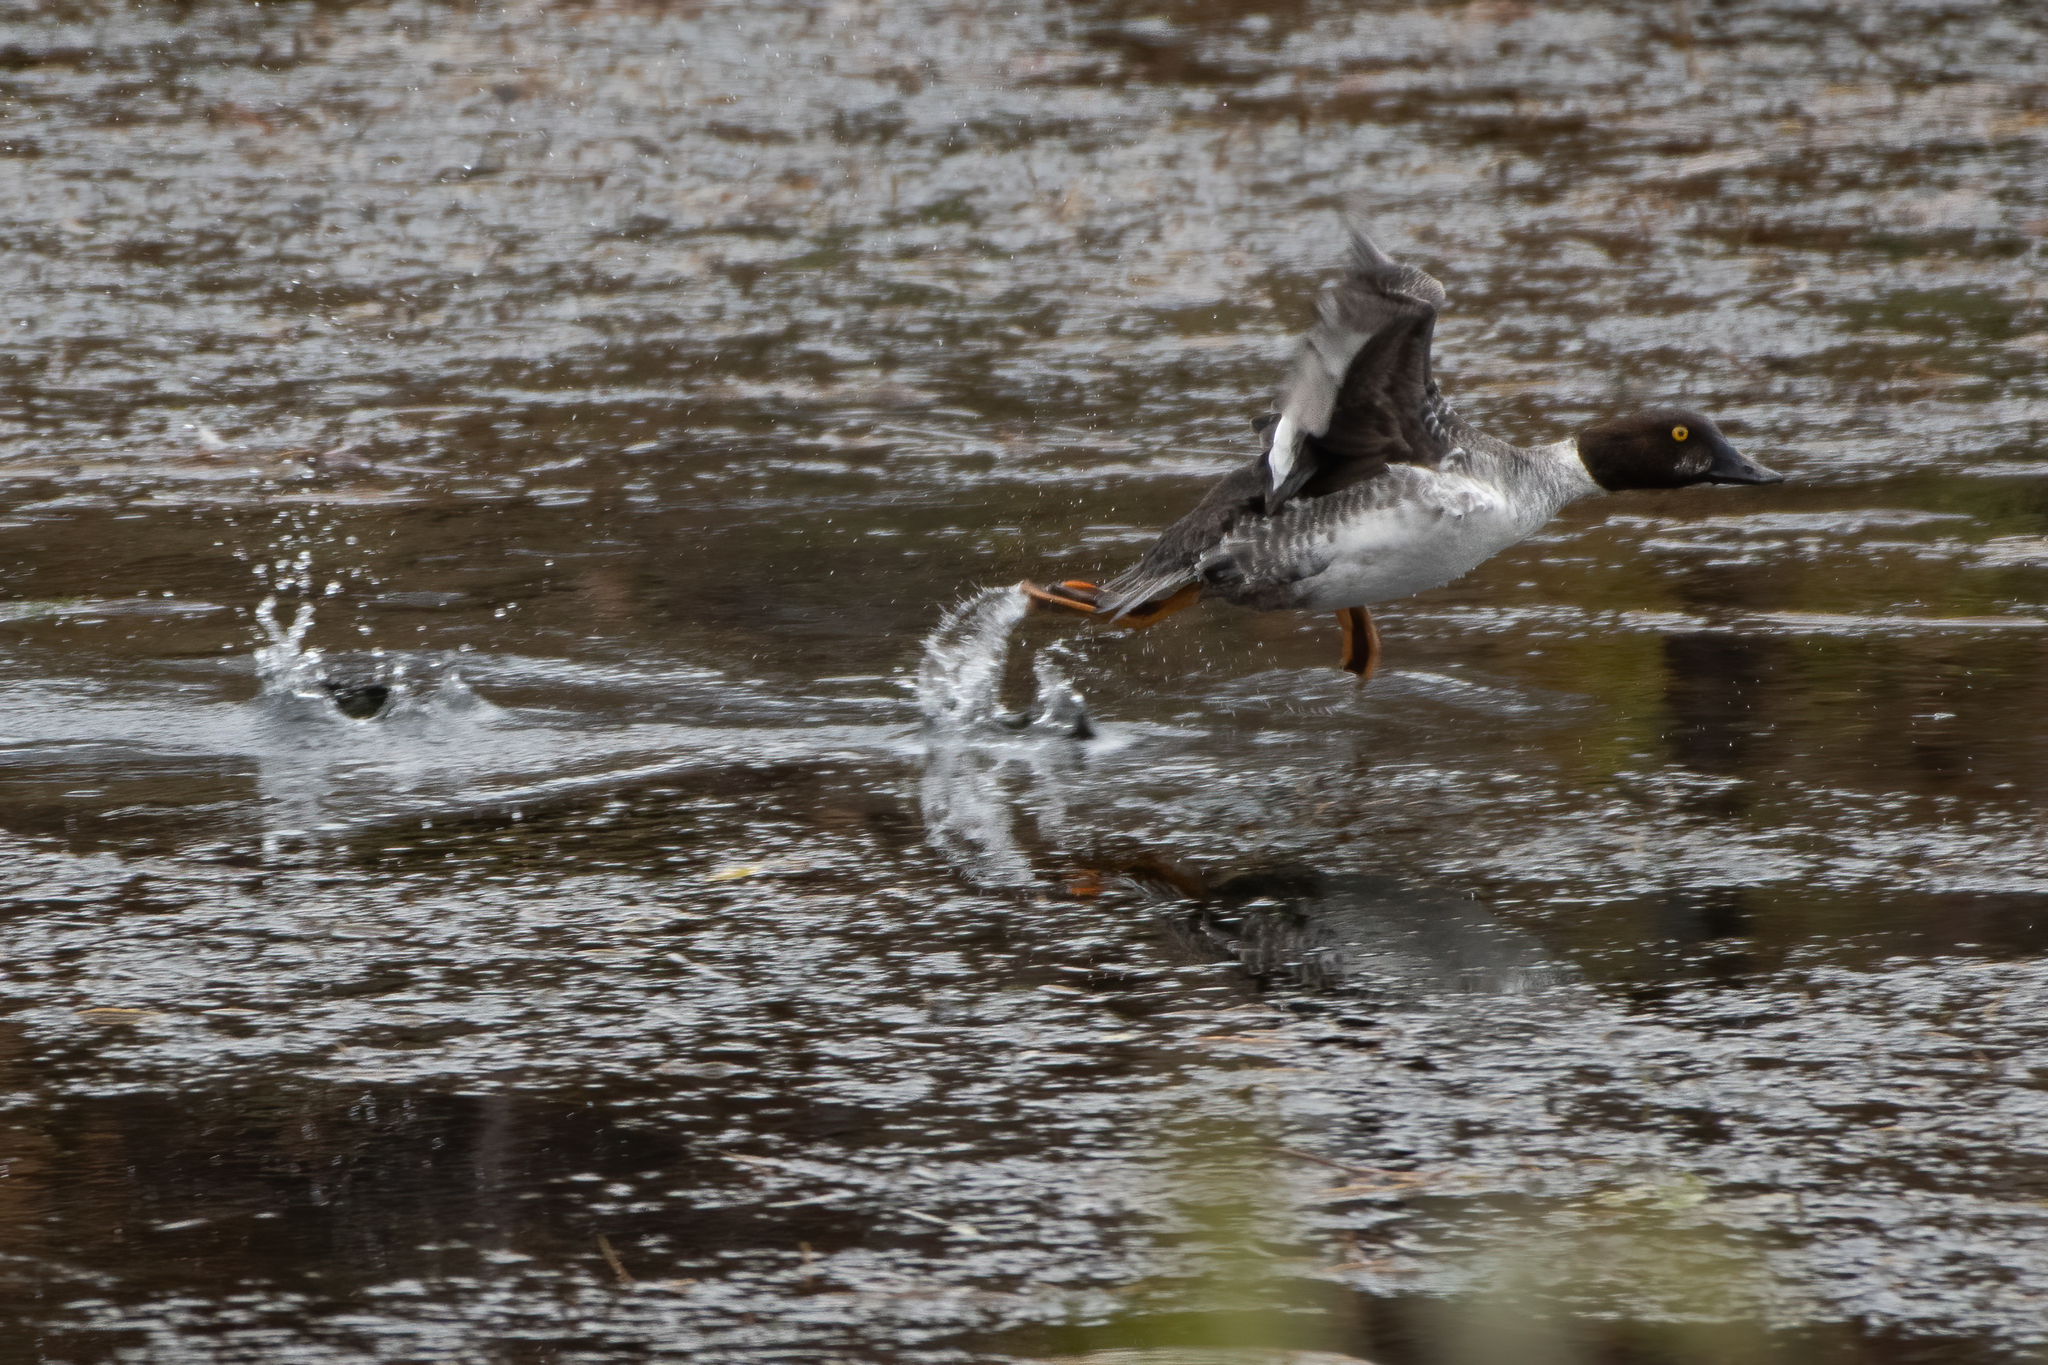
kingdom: Animalia
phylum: Chordata
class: Aves
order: Anseriformes
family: Anatidae
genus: Bucephala
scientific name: Bucephala clangula
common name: Common goldeneye
